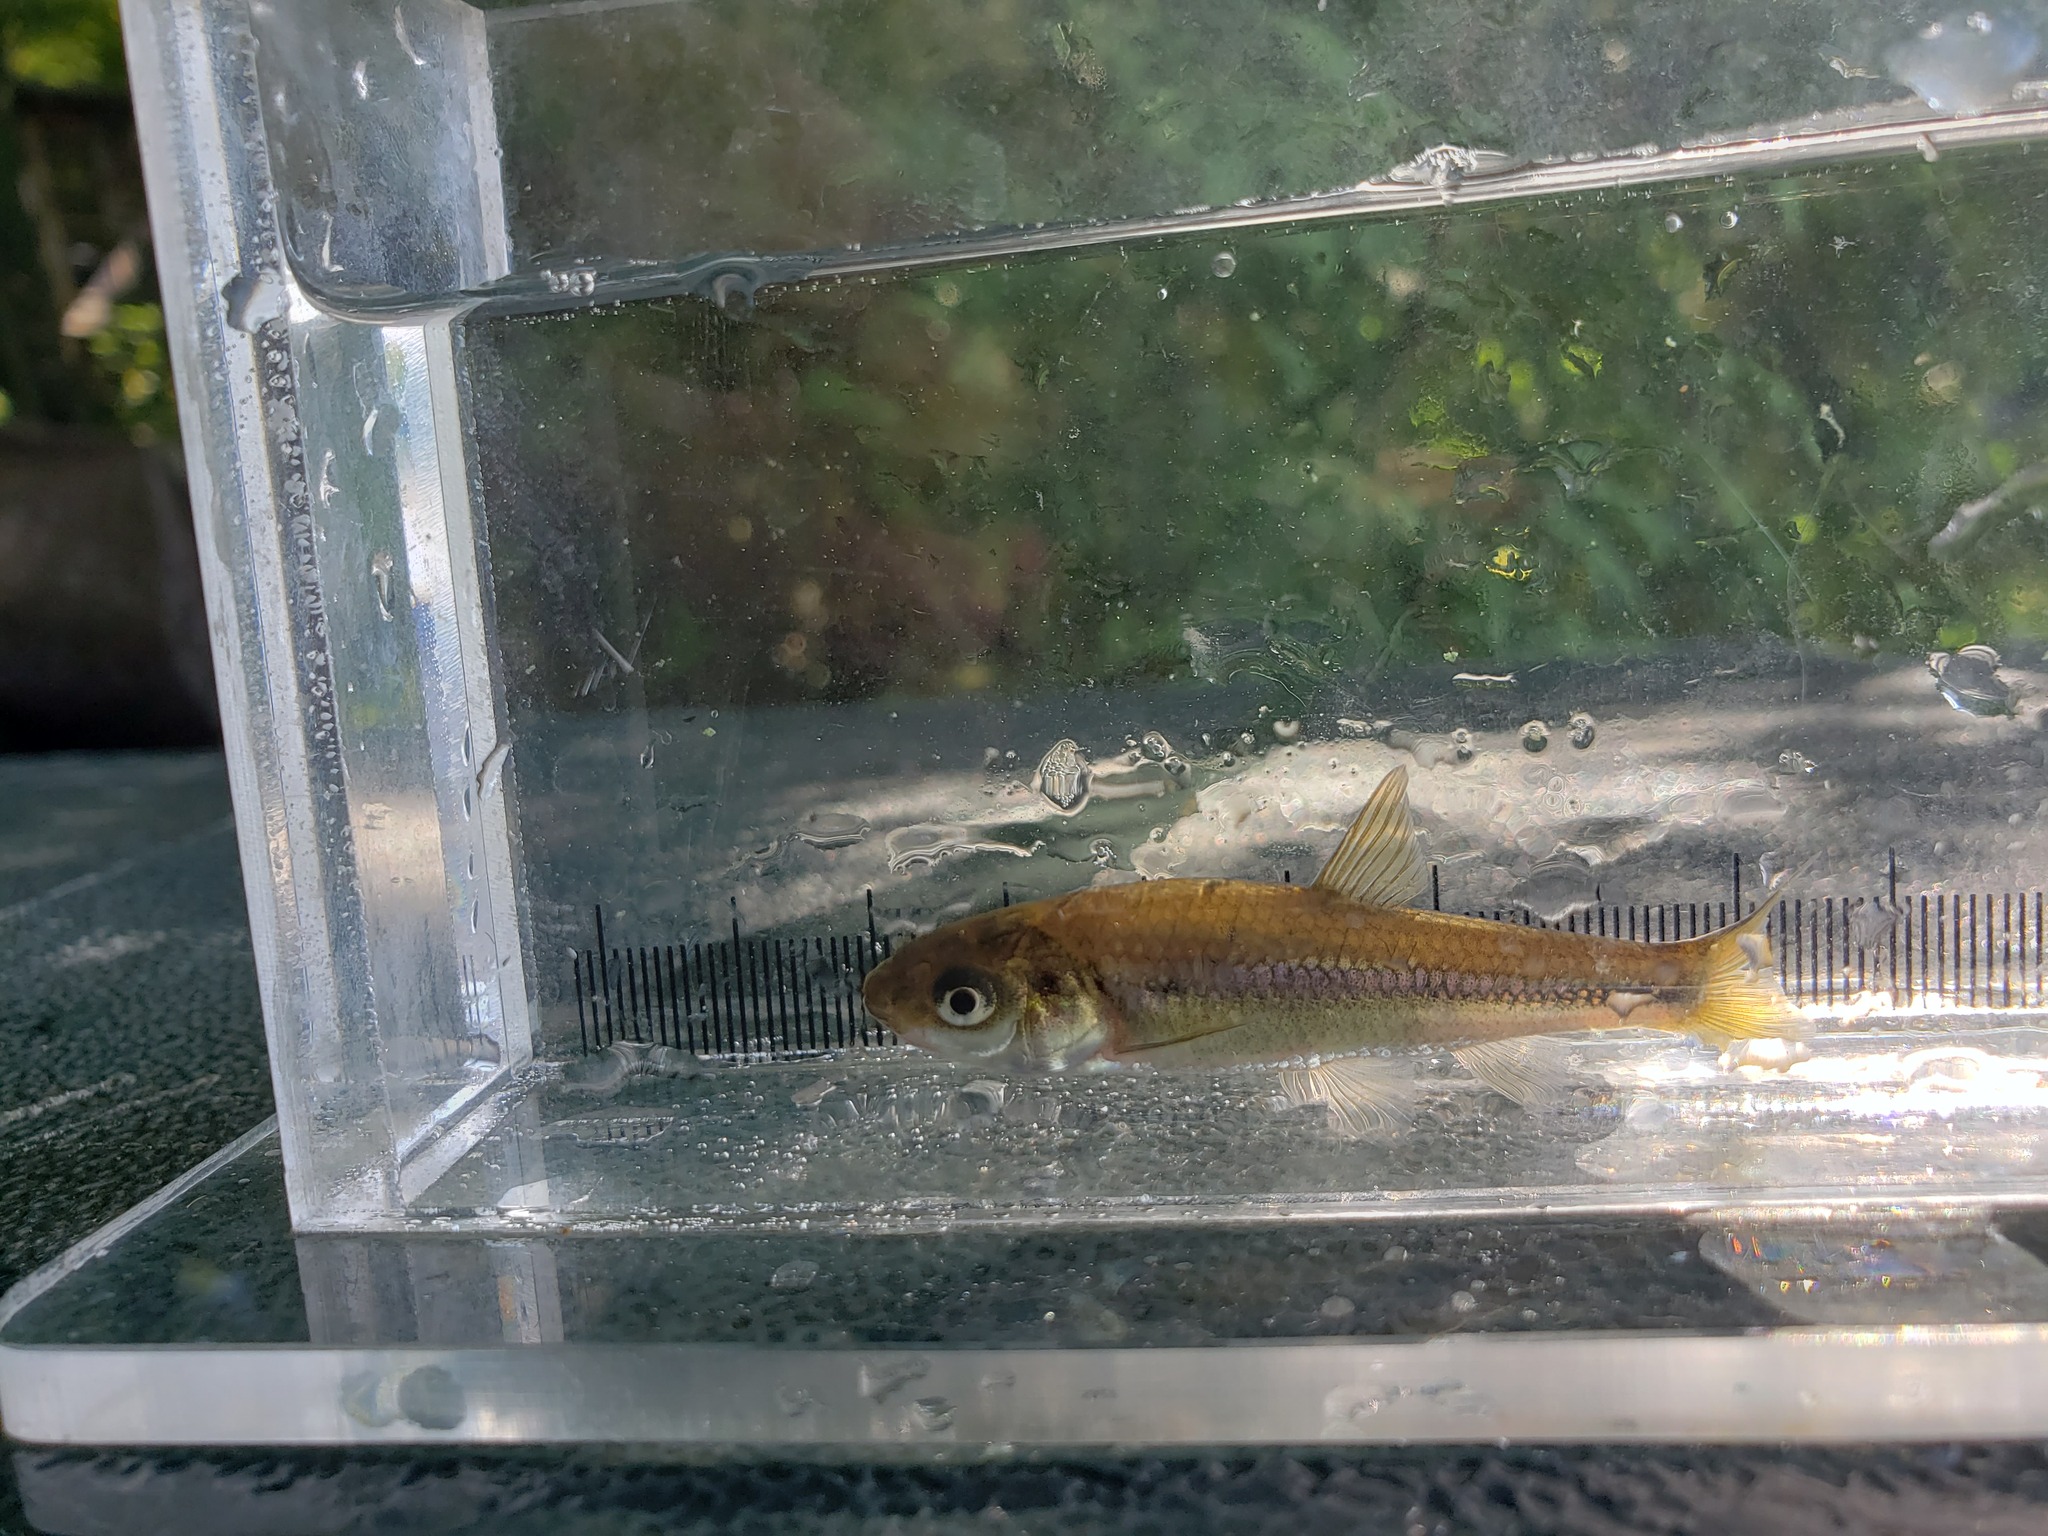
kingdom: Animalia
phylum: Chordata
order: Cypriniformes
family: Cyprinidae
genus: Hybognathus
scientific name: Hybognathus hankinsoni
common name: Brassy minnow
